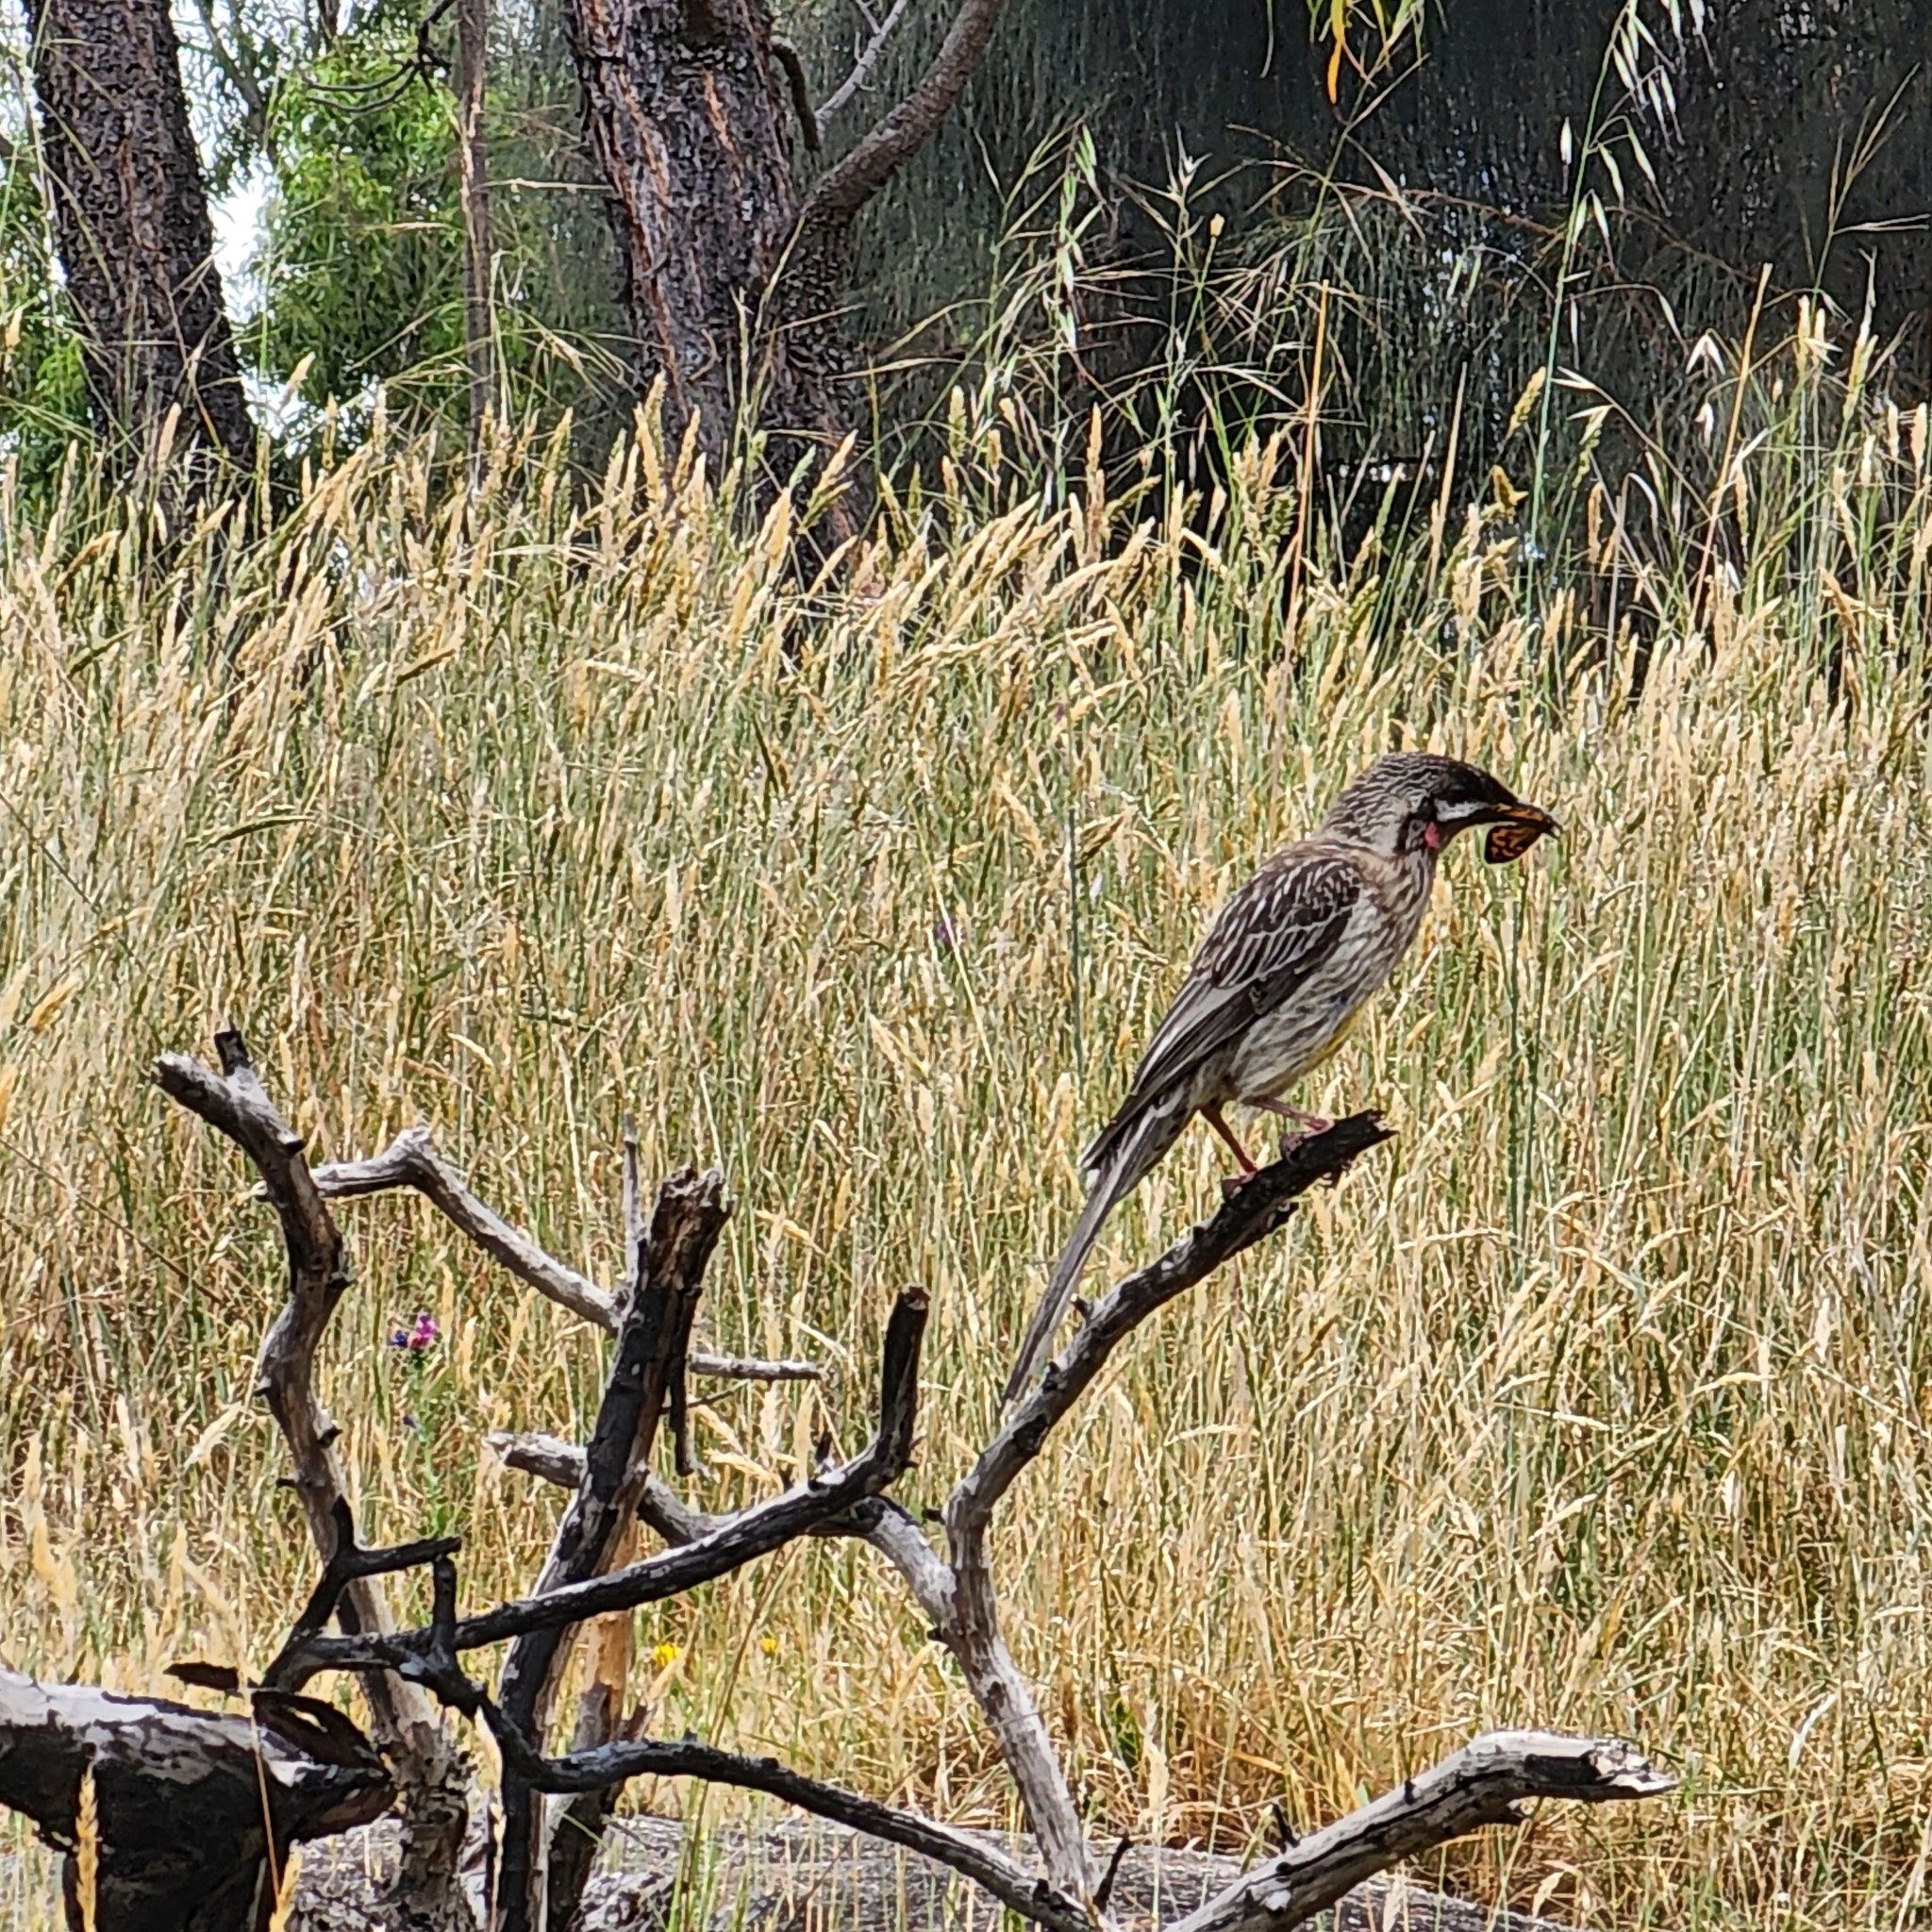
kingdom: Animalia
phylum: Chordata
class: Aves
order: Passeriformes
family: Meliphagidae
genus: Anthochaera
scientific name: Anthochaera carunculata
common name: Red wattlebird
